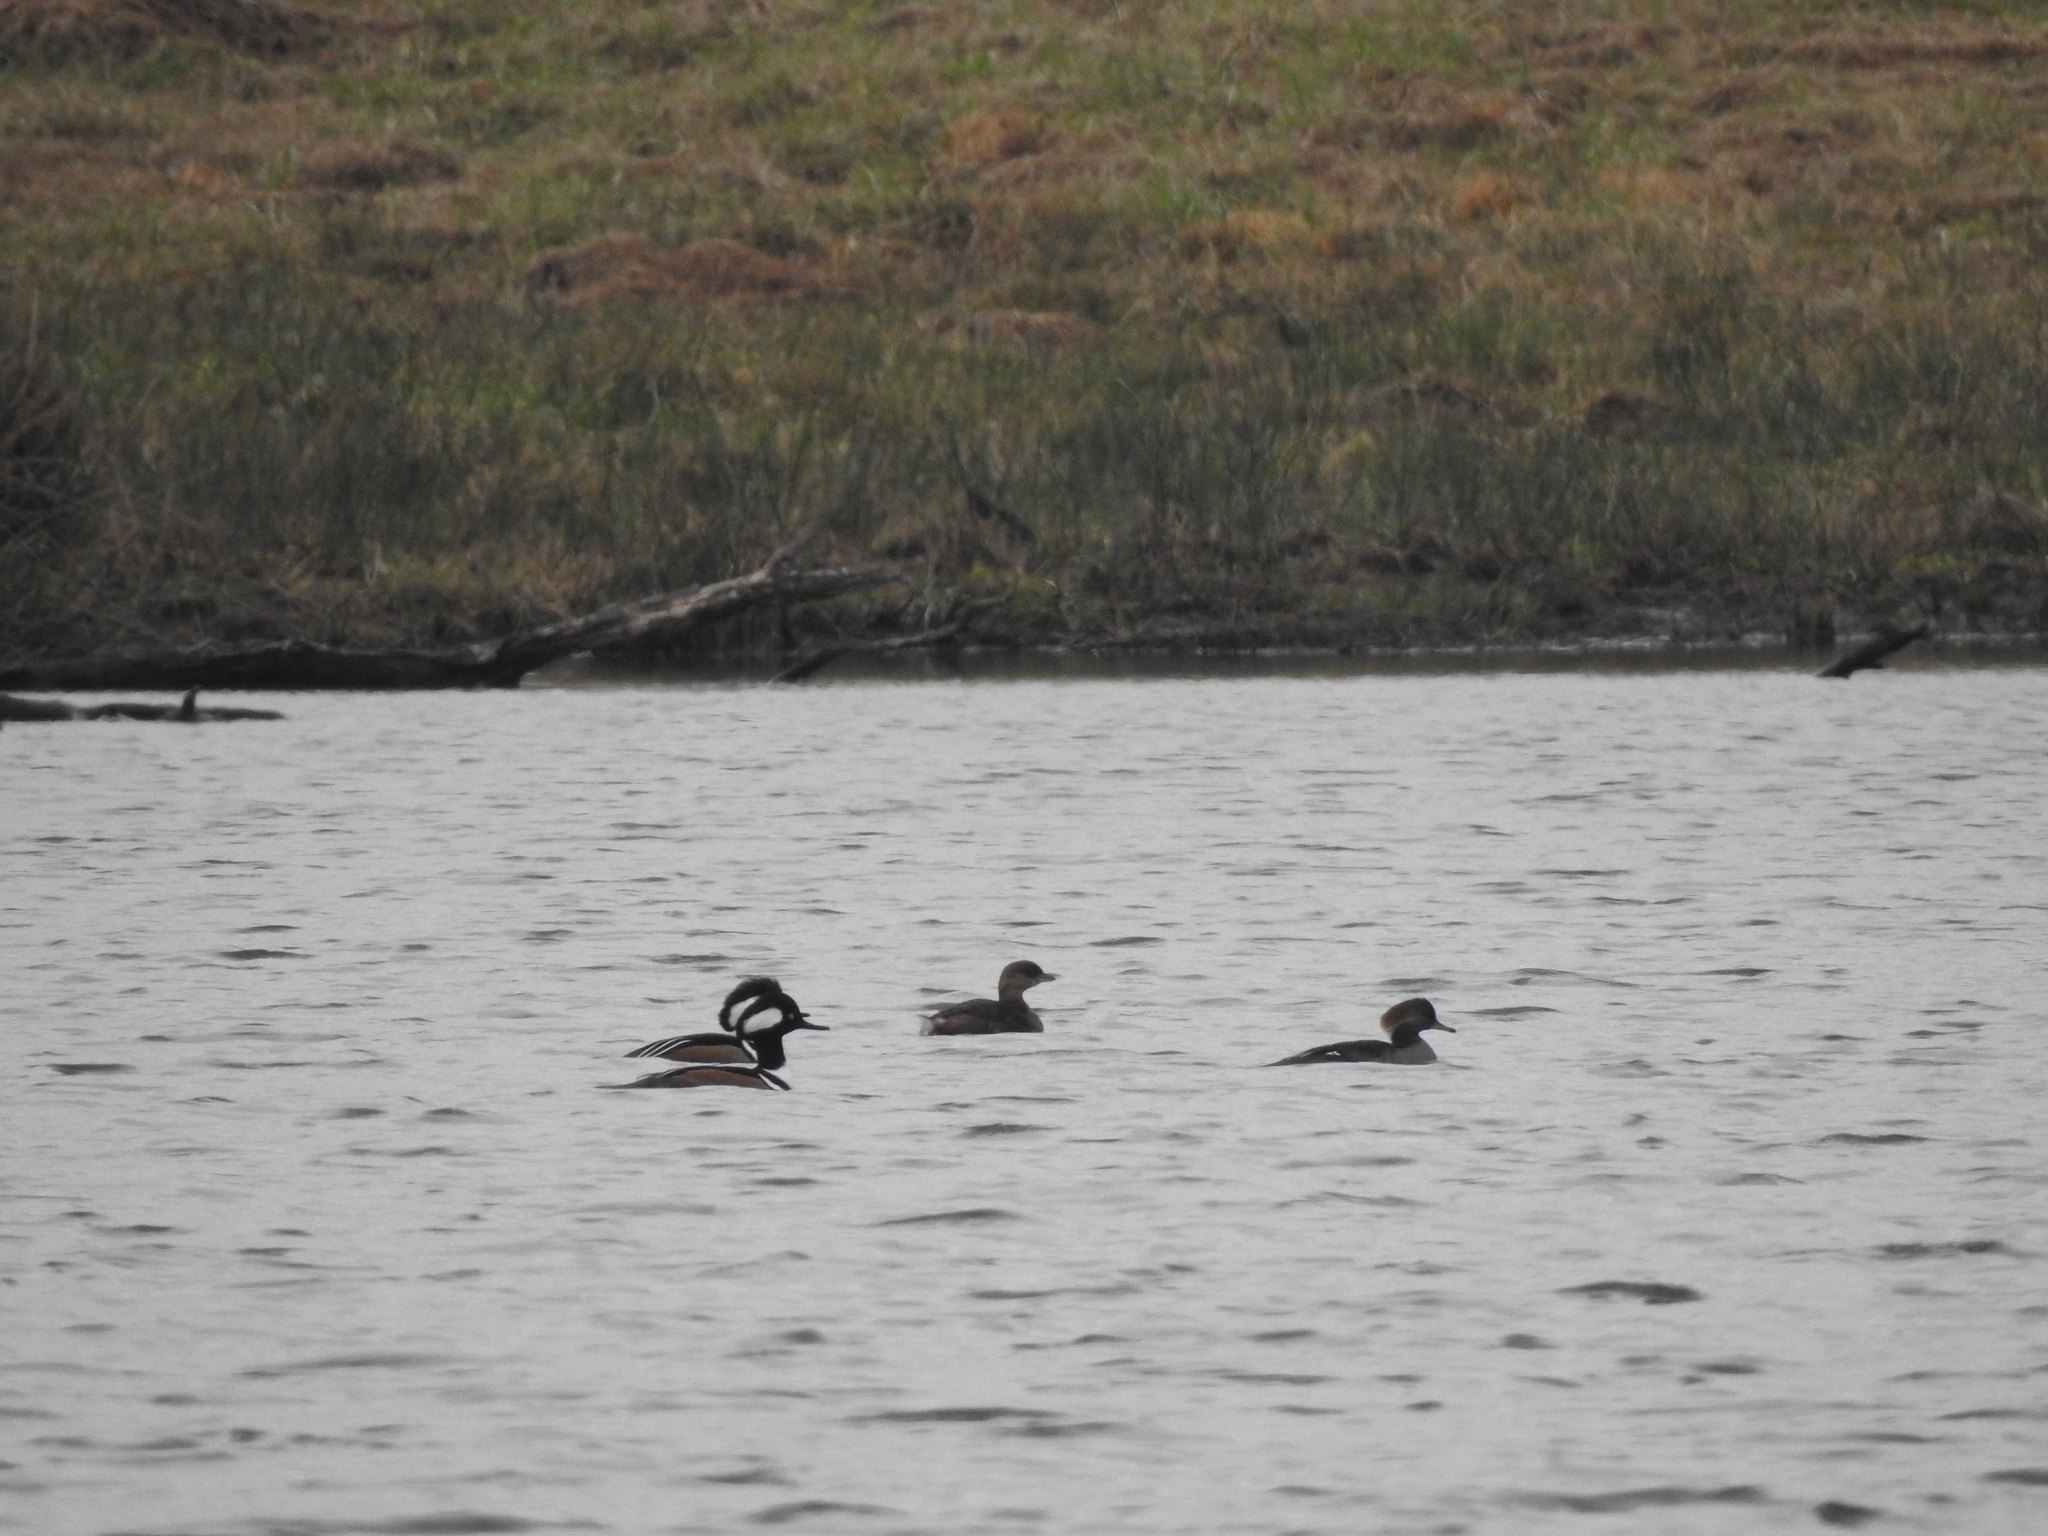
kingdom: Animalia
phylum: Chordata
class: Aves
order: Podicipediformes
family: Podicipedidae
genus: Podilymbus
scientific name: Podilymbus podiceps
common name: Pied-billed grebe
